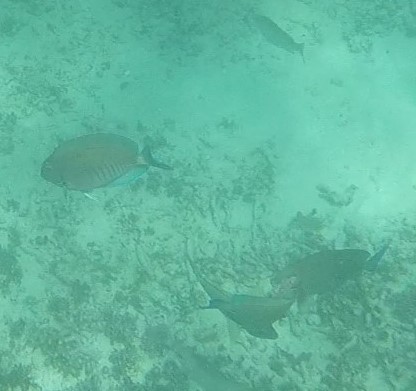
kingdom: Animalia
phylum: Chordata
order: Perciformes
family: Acanthuridae
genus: Acanthurus
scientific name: Acanthurus chirurgus
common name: Doctorfish
